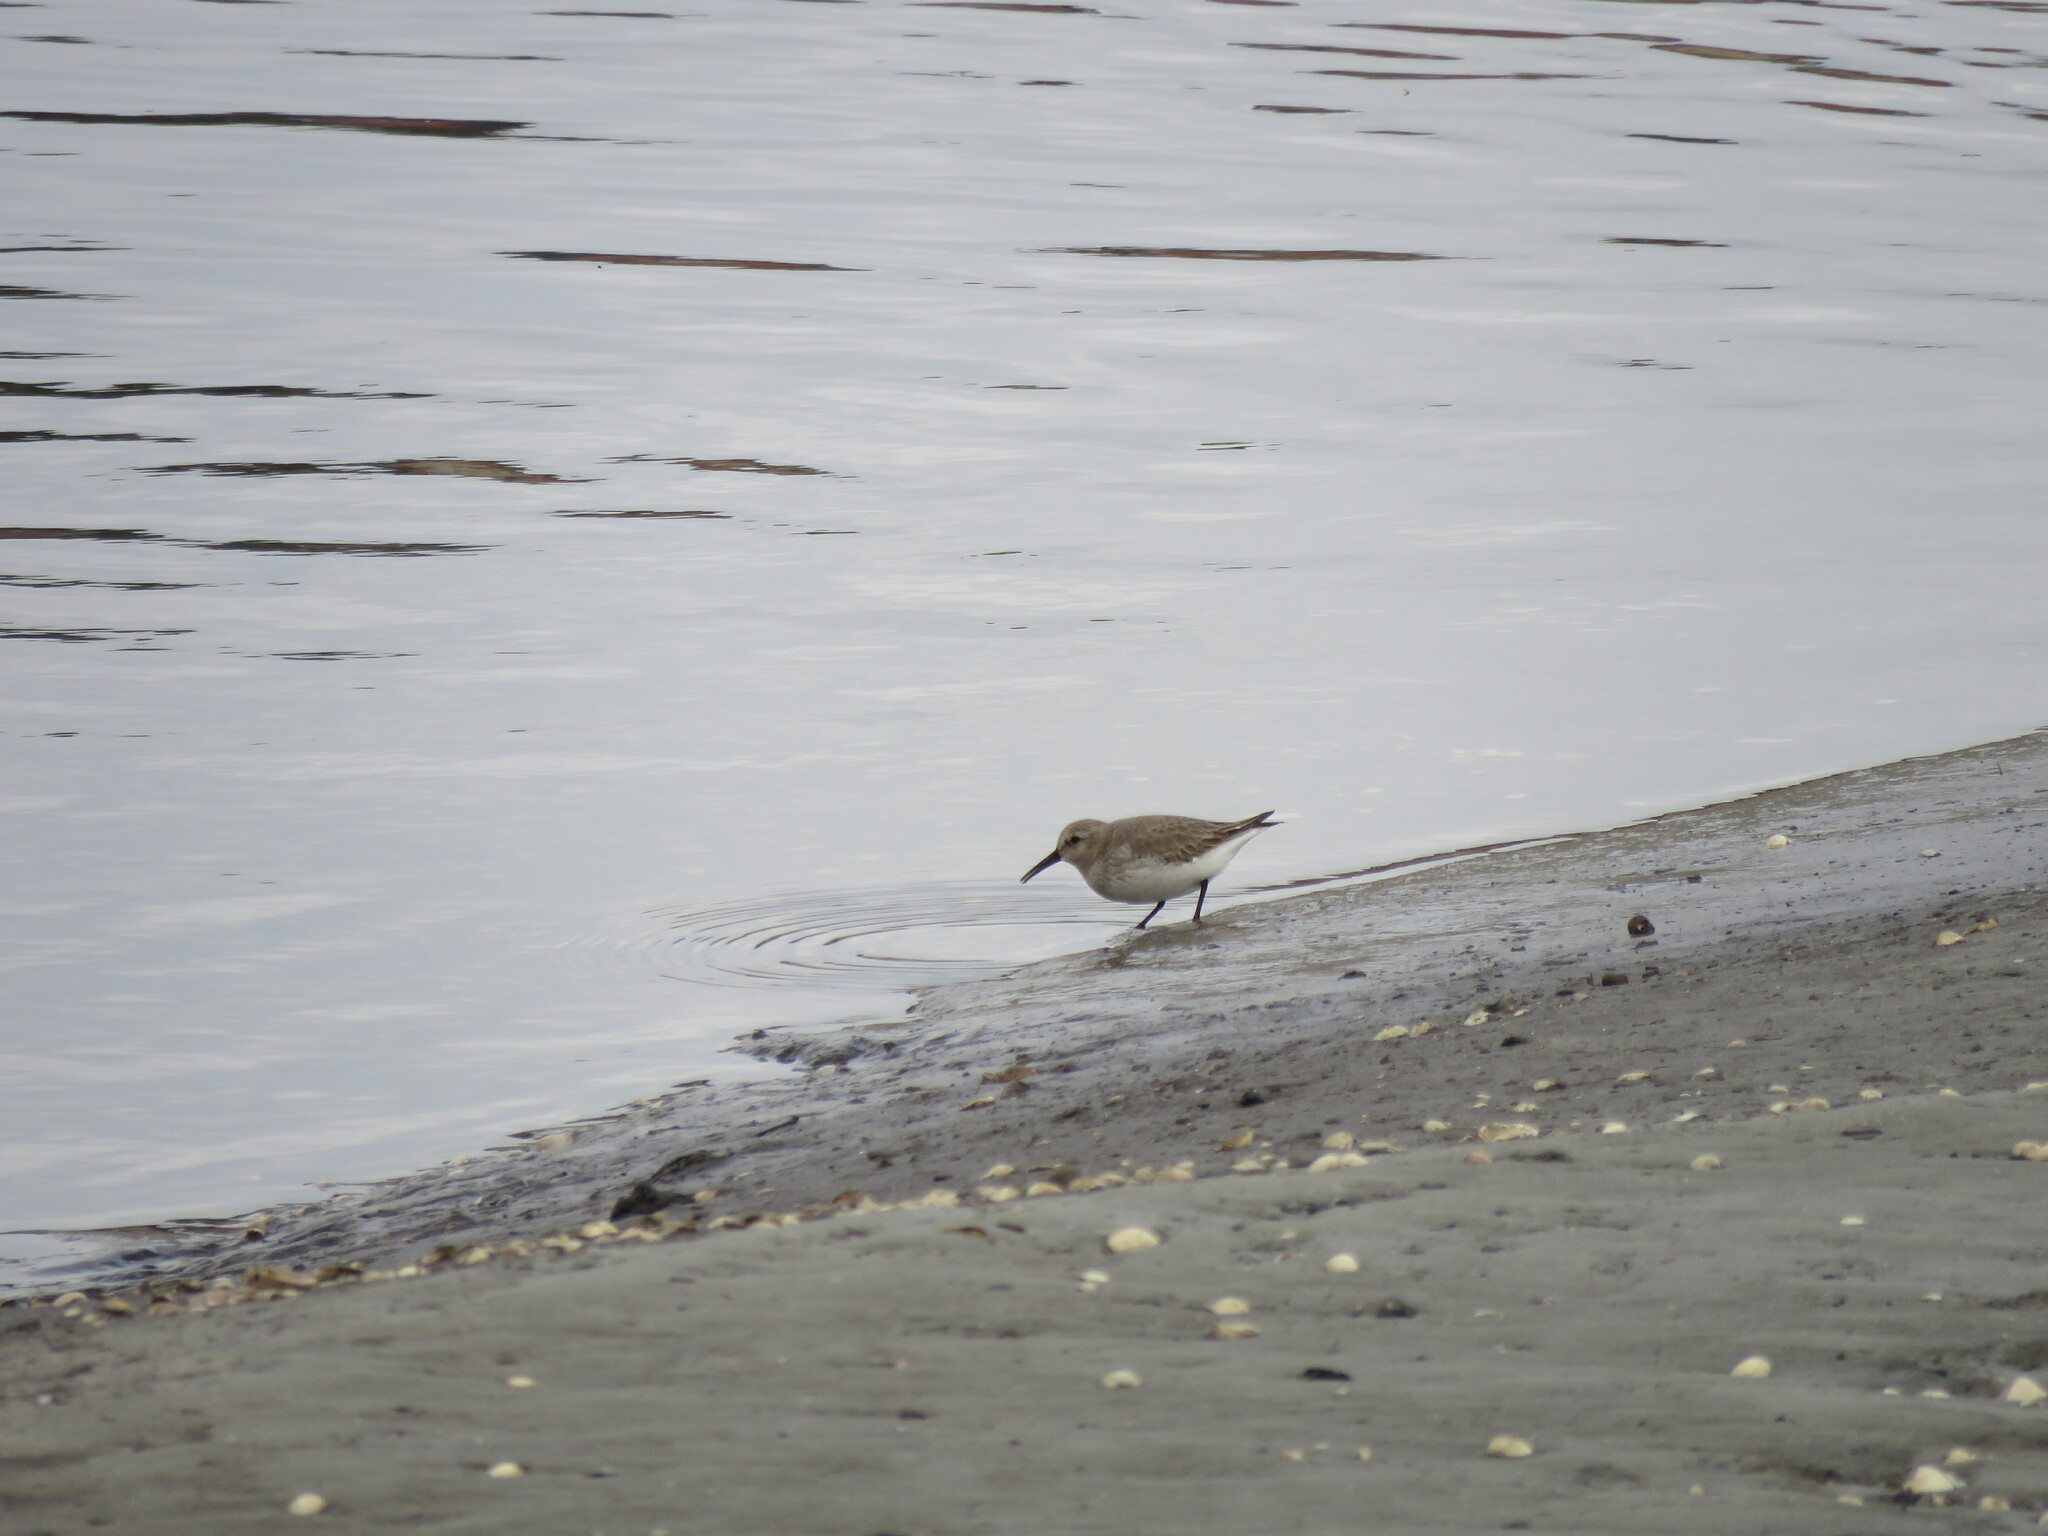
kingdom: Animalia
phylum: Chordata
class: Aves
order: Charadriiformes
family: Scolopacidae
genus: Calidris
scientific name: Calidris alpina
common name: Dunlin
